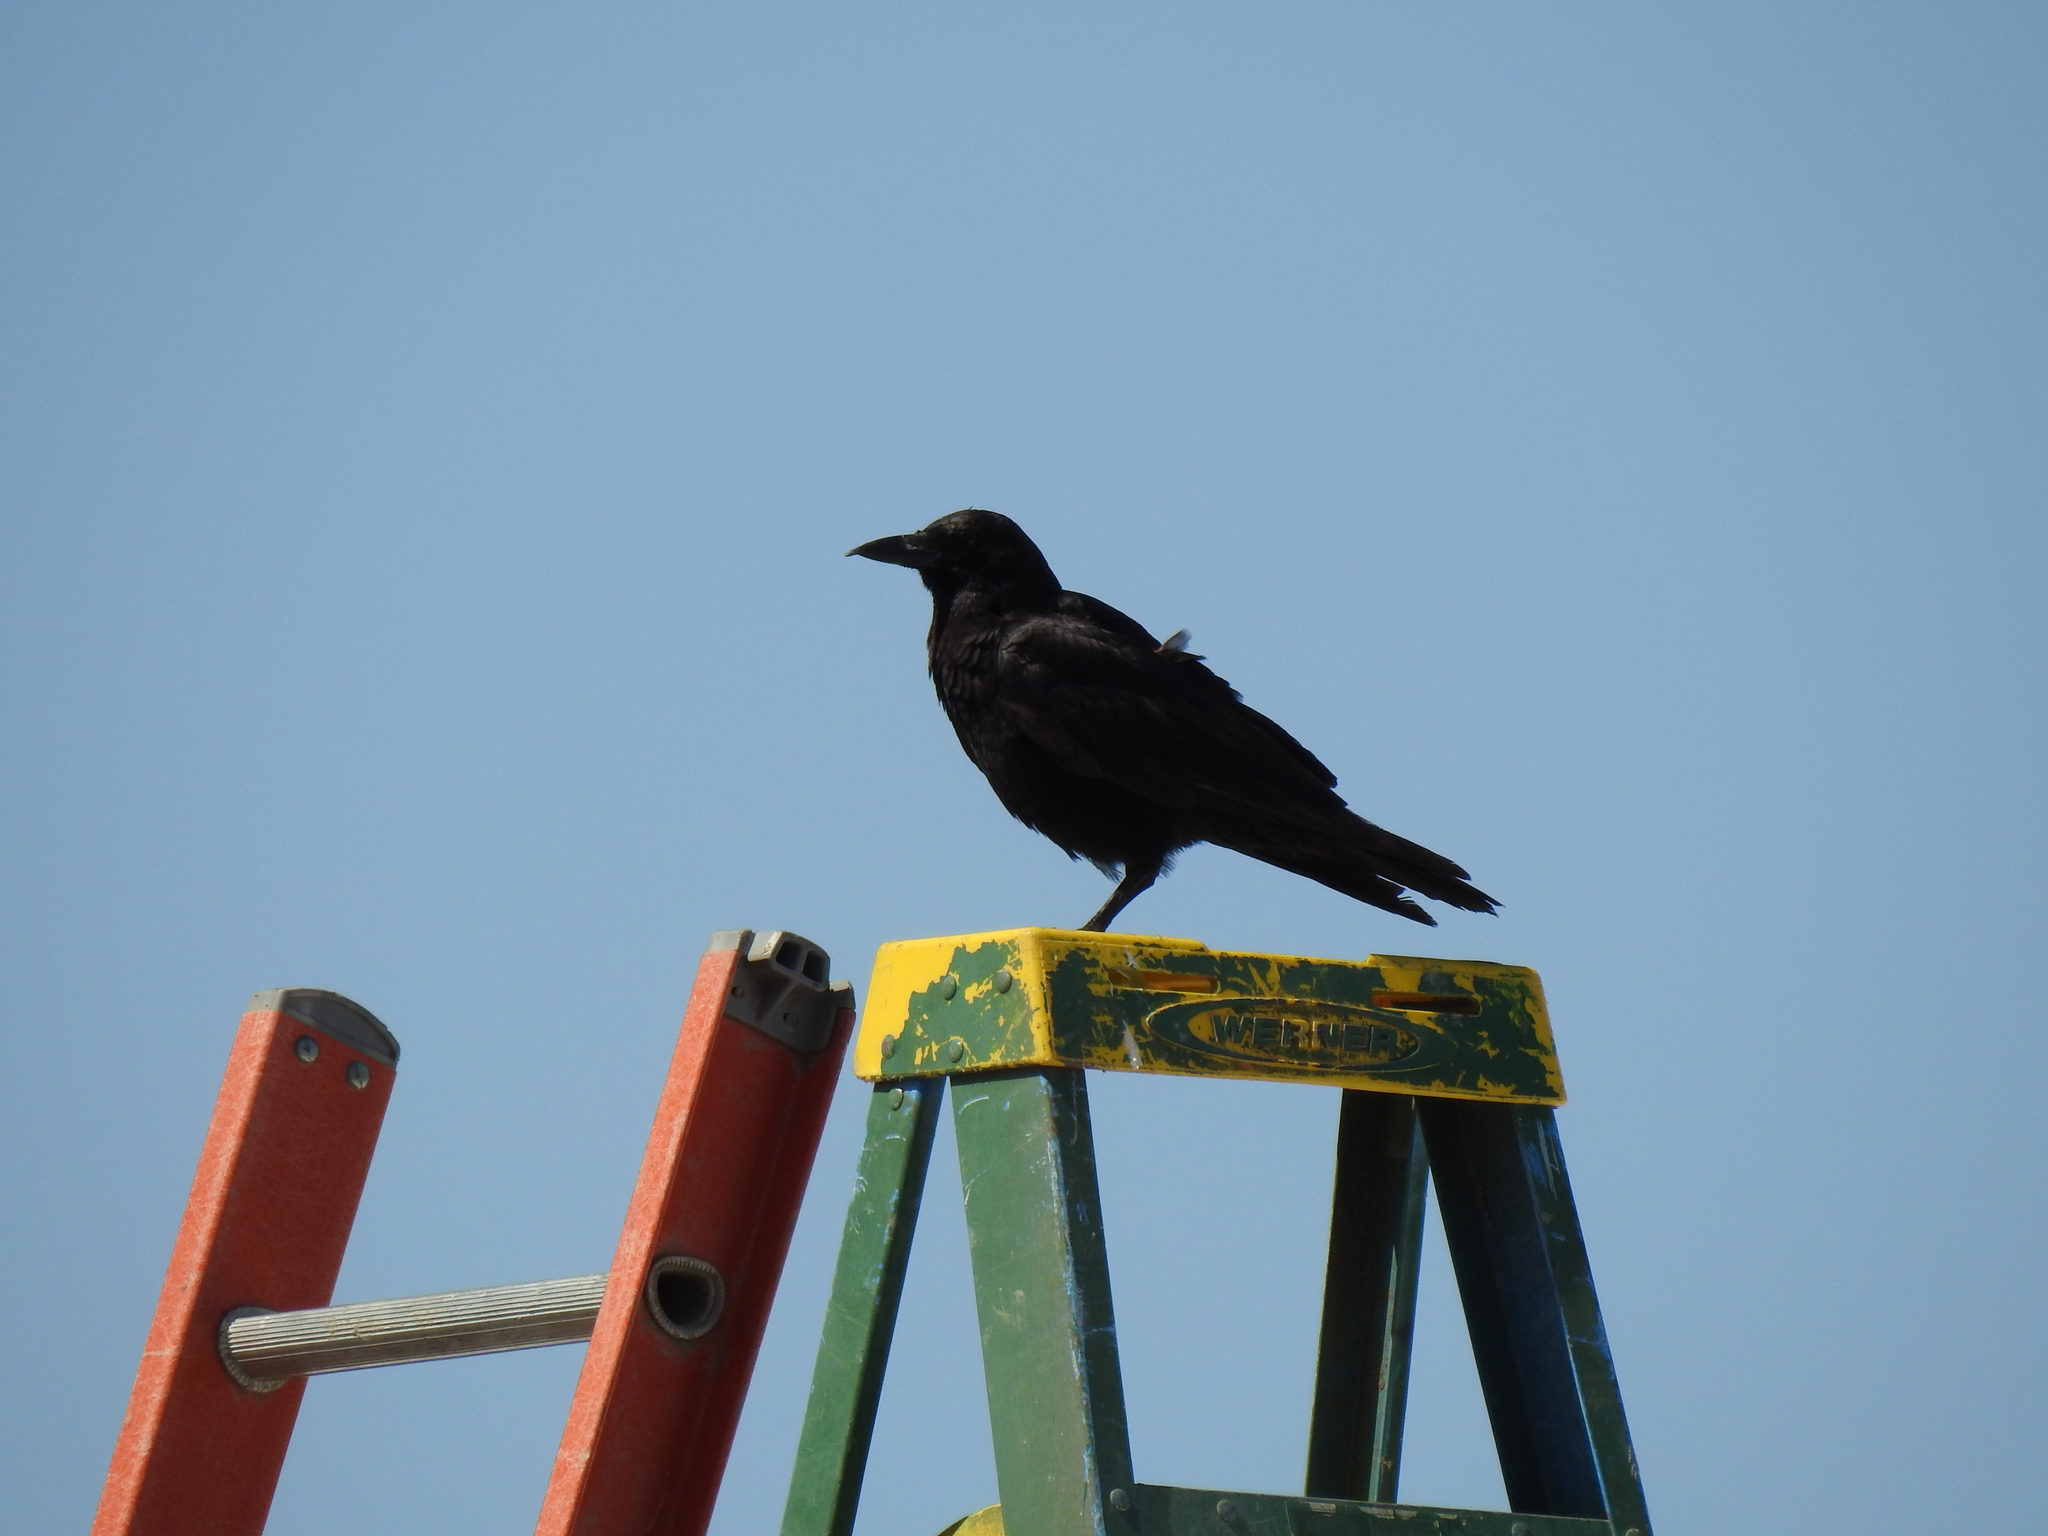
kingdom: Animalia
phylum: Chordata
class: Aves
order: Passeriformes
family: Corvidae
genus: Corvus
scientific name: Corvus brachyrhynchos
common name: American crow
